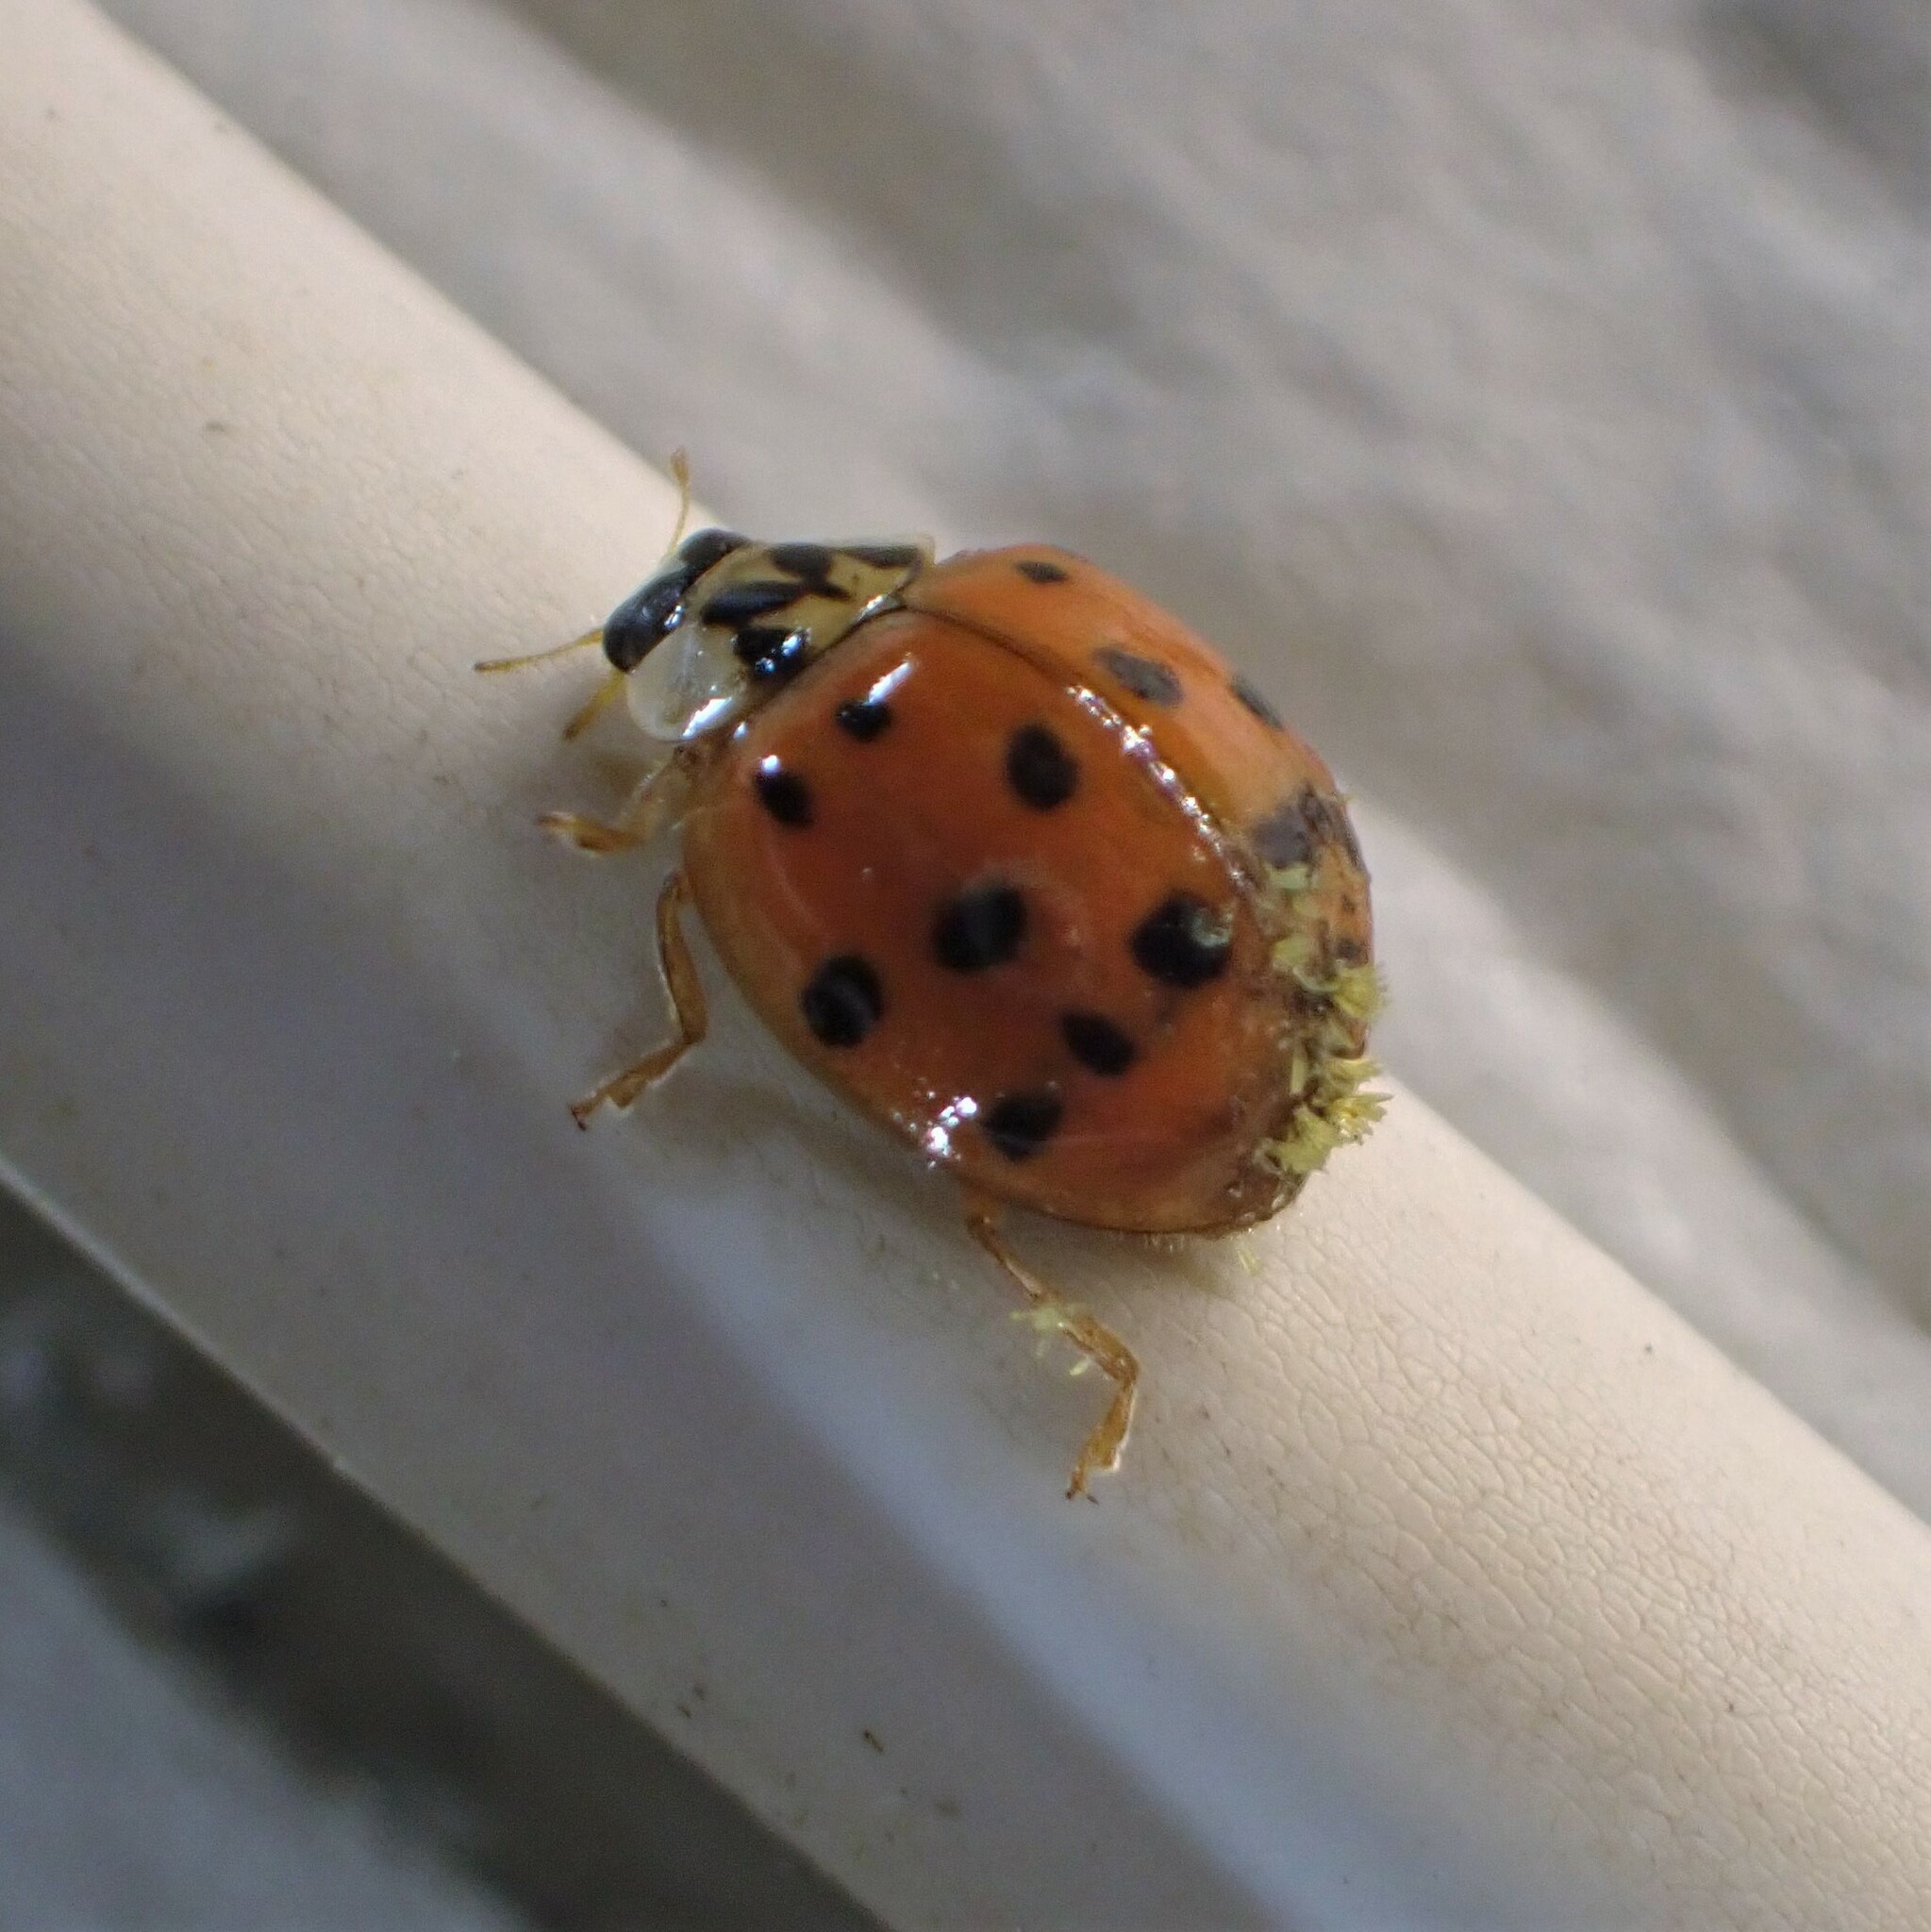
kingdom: Fungi
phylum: Ascomycota
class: Laboulbeniomycetes
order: Laboulbeniales
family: Laboulbeniaceae
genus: Hesperomyces
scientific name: Hesperomyces harmoniae
